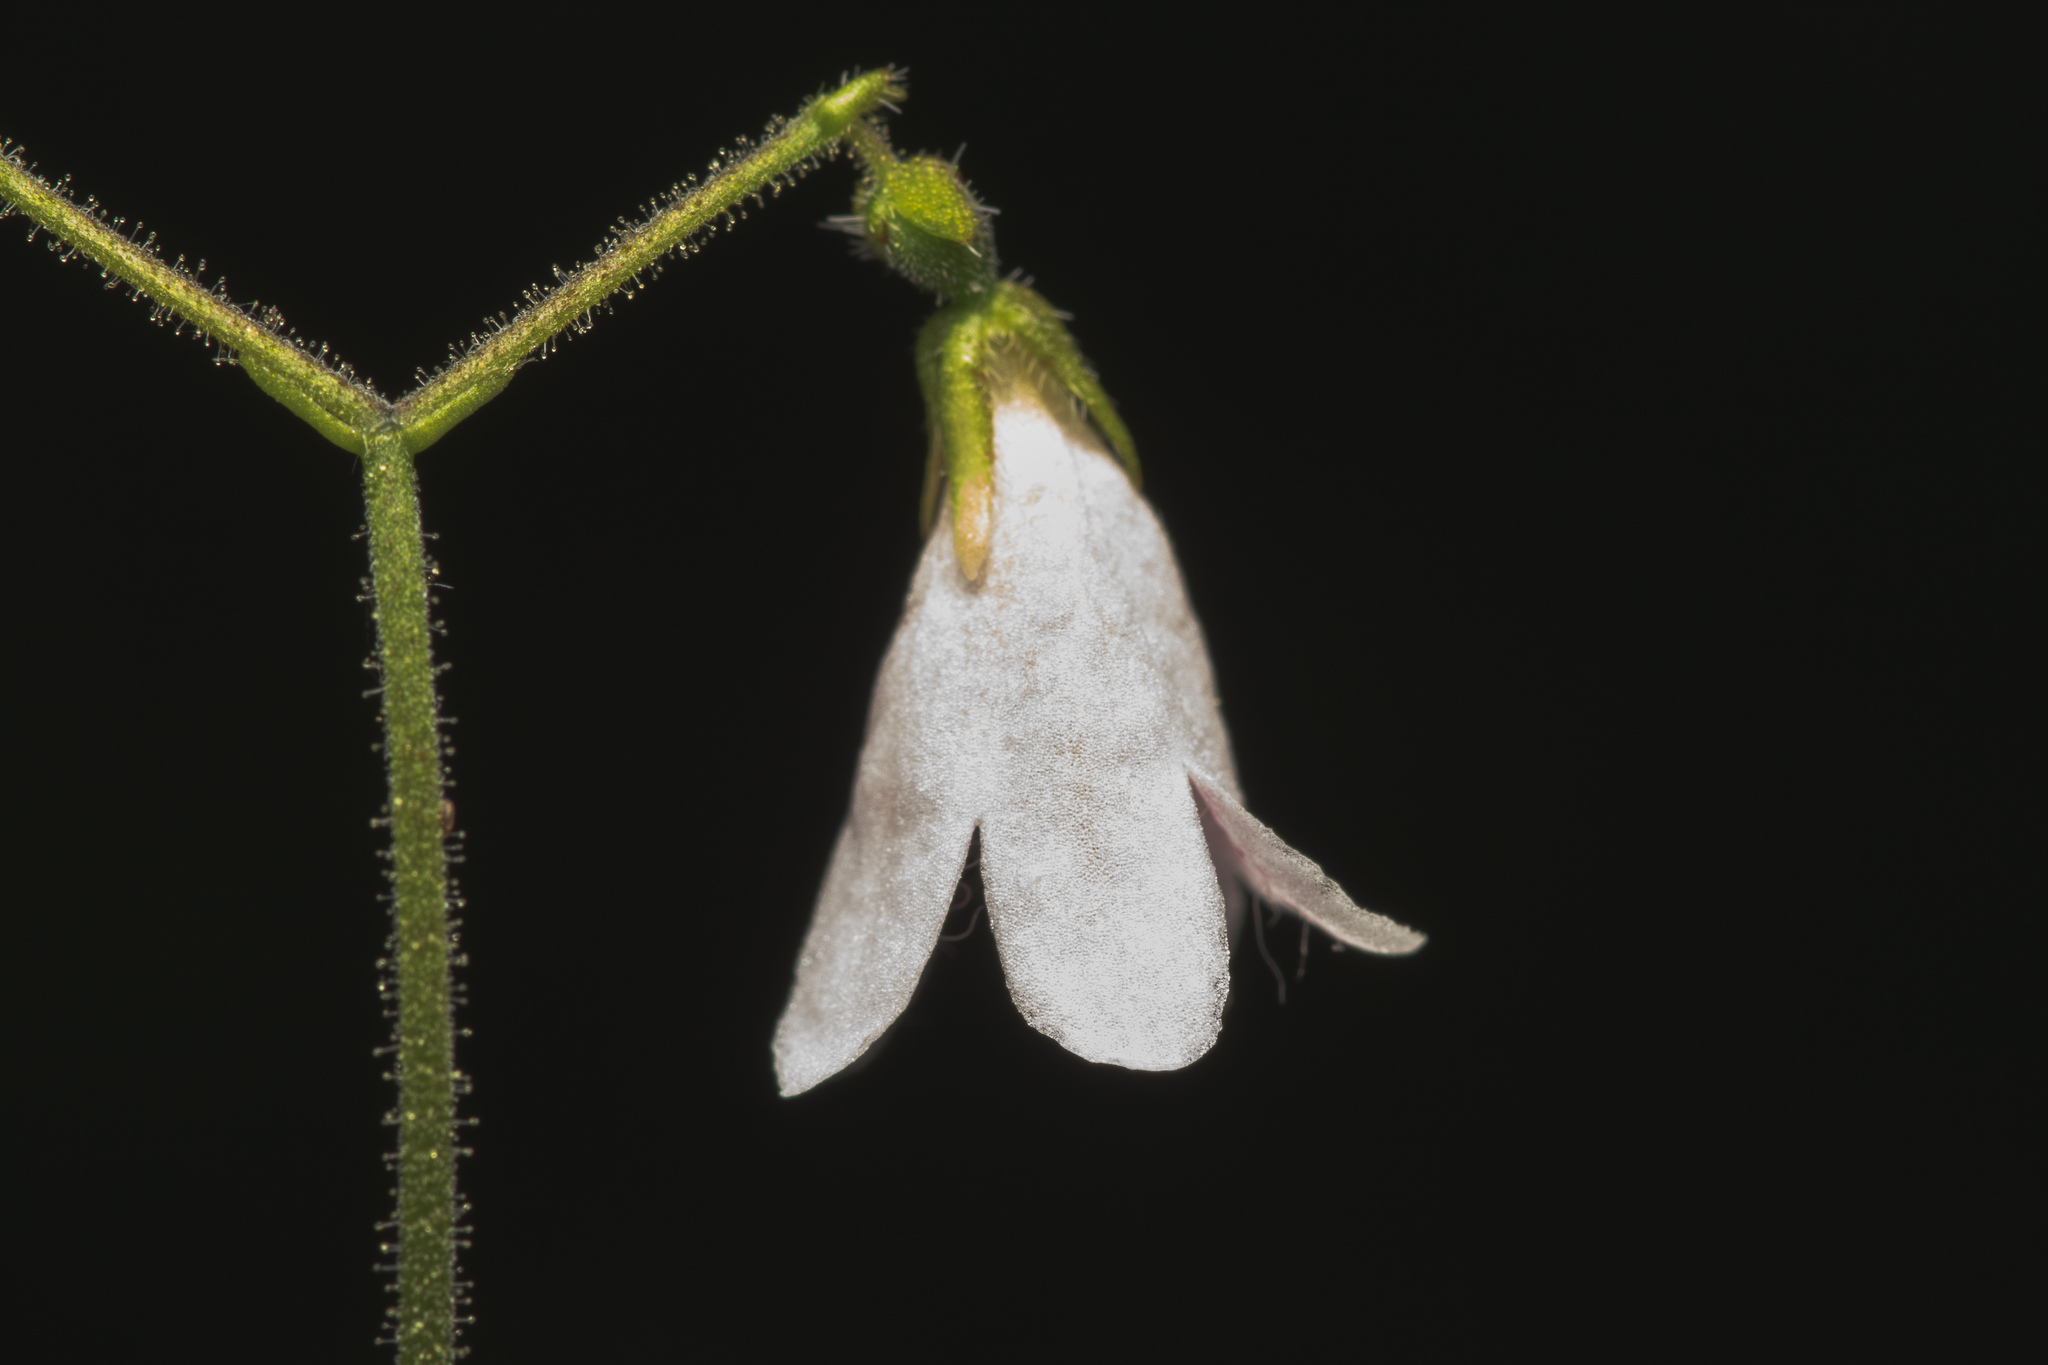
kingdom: Plantae
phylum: Tracheophyta
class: Magnoliopsida
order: Dipsacales
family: Caprifoliaceae
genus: Linnaea
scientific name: Linnaea borealis
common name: Twinflower
